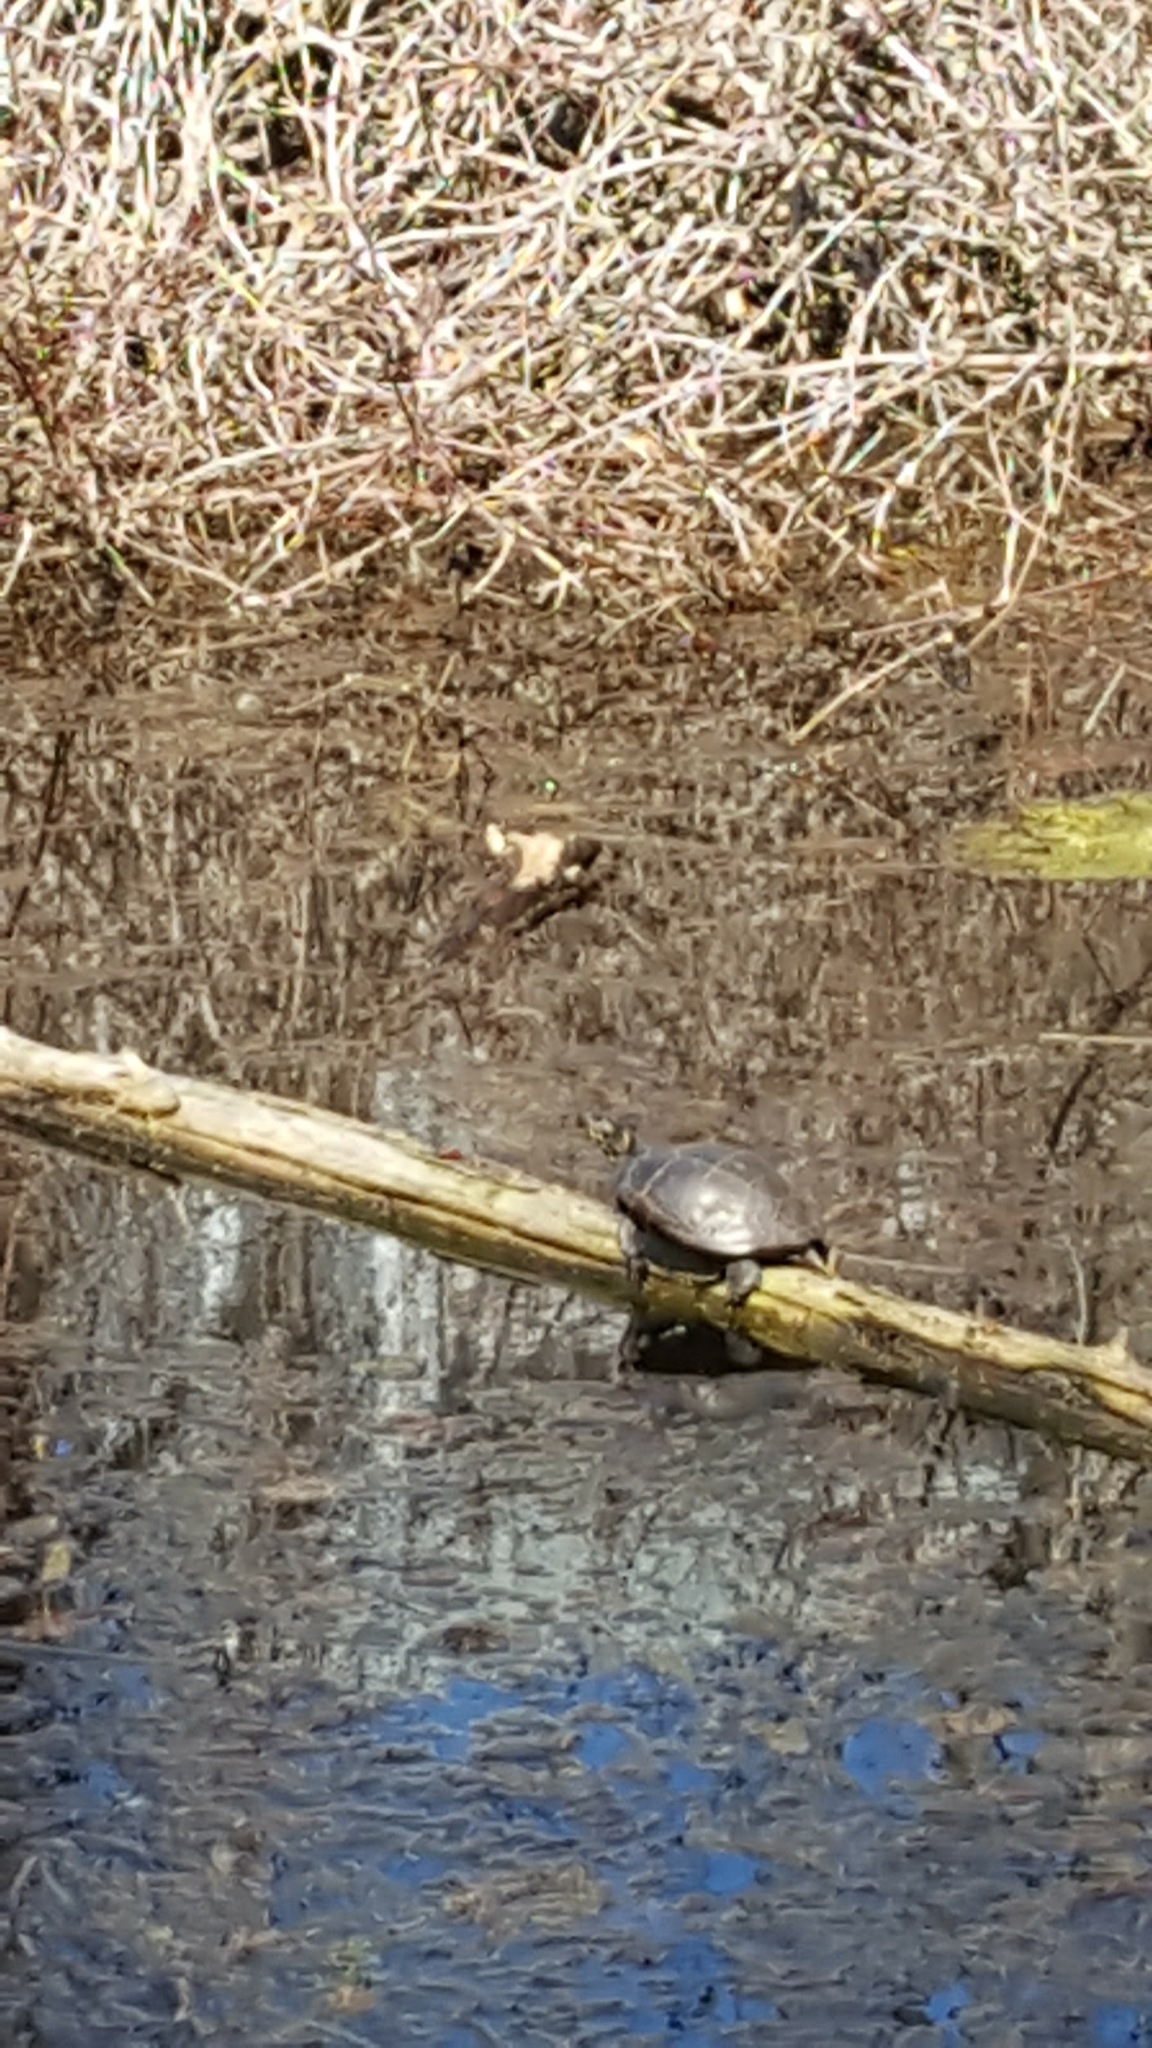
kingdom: Animalia
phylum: Chordata
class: Testudines
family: Emydidae
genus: Chrysemys
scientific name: Chrysemys picta
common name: Painted turtle
